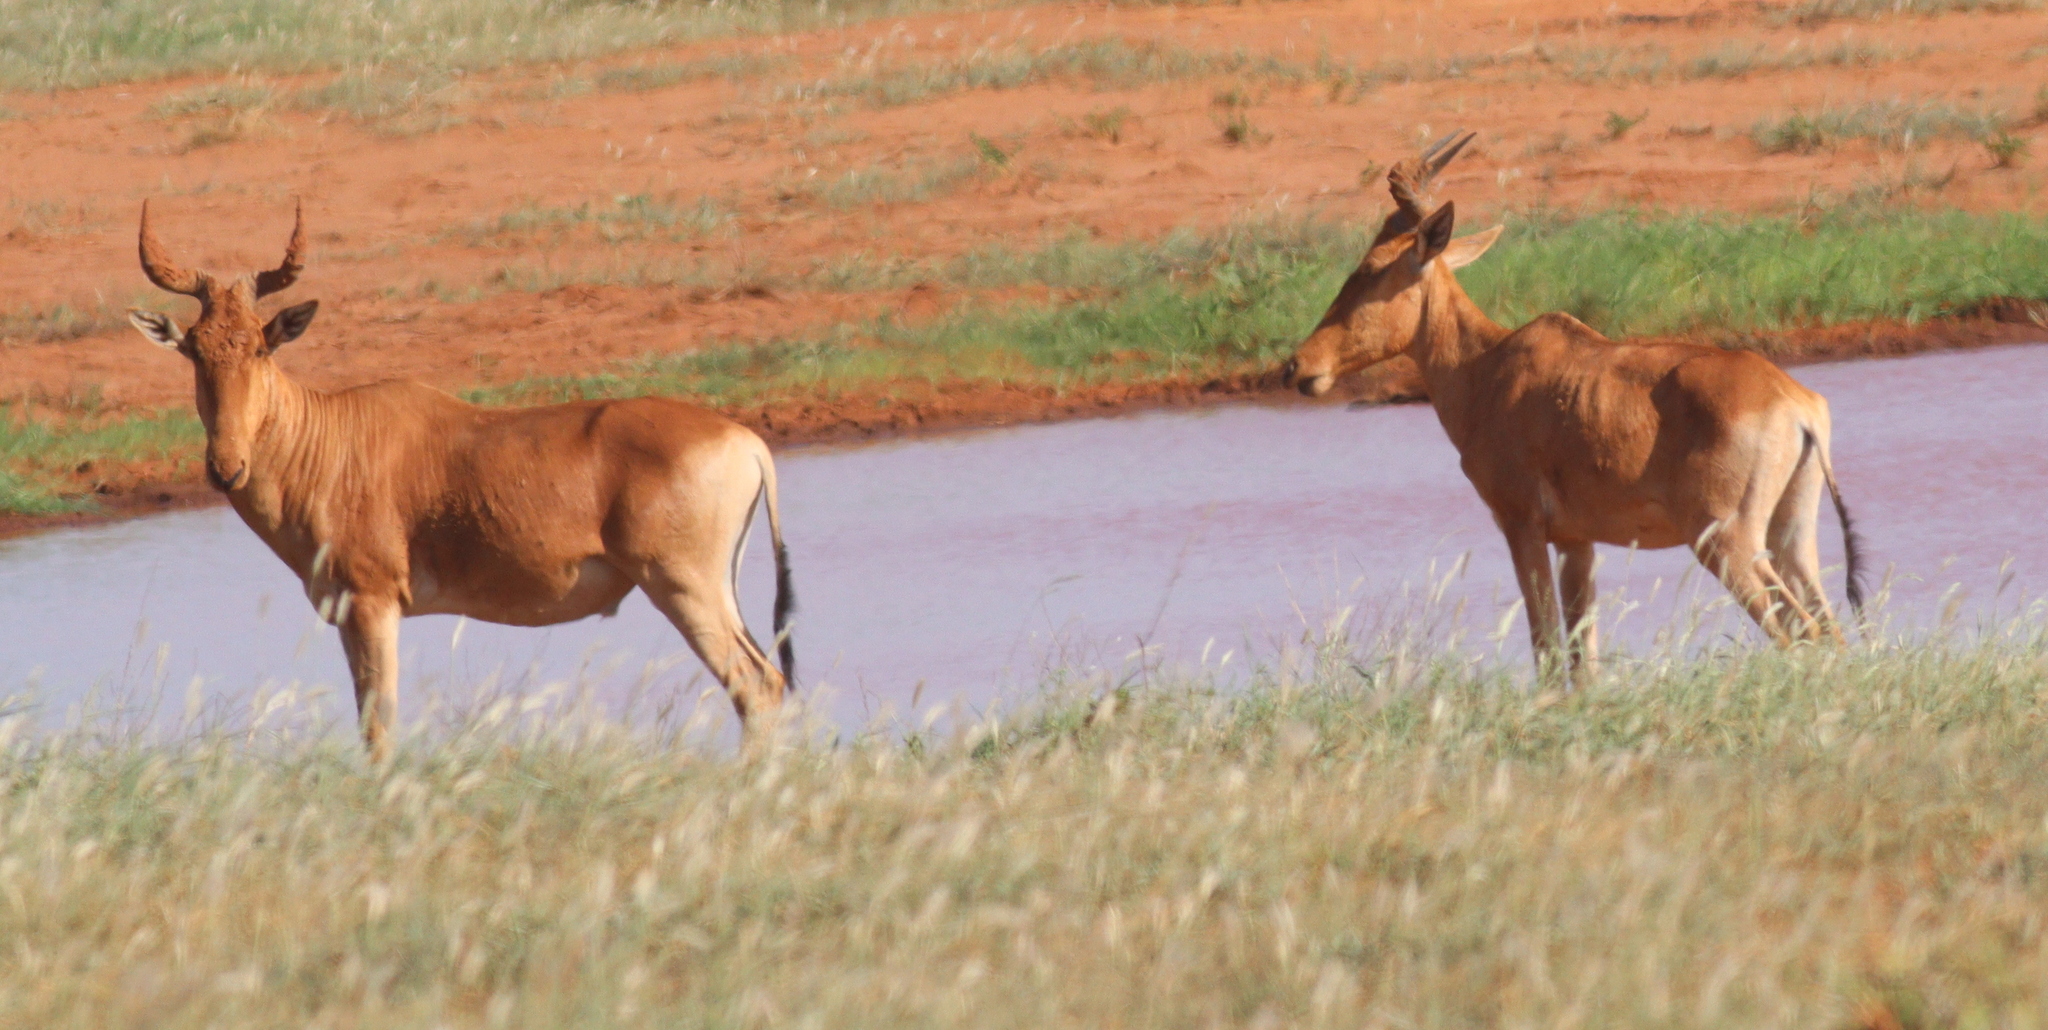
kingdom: Animalia
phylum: Chordata
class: Mammalia
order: Artiodactyla
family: Bovidae
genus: Alcelaphus
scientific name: Alcelaphus buselaphus
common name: Hartebeest
